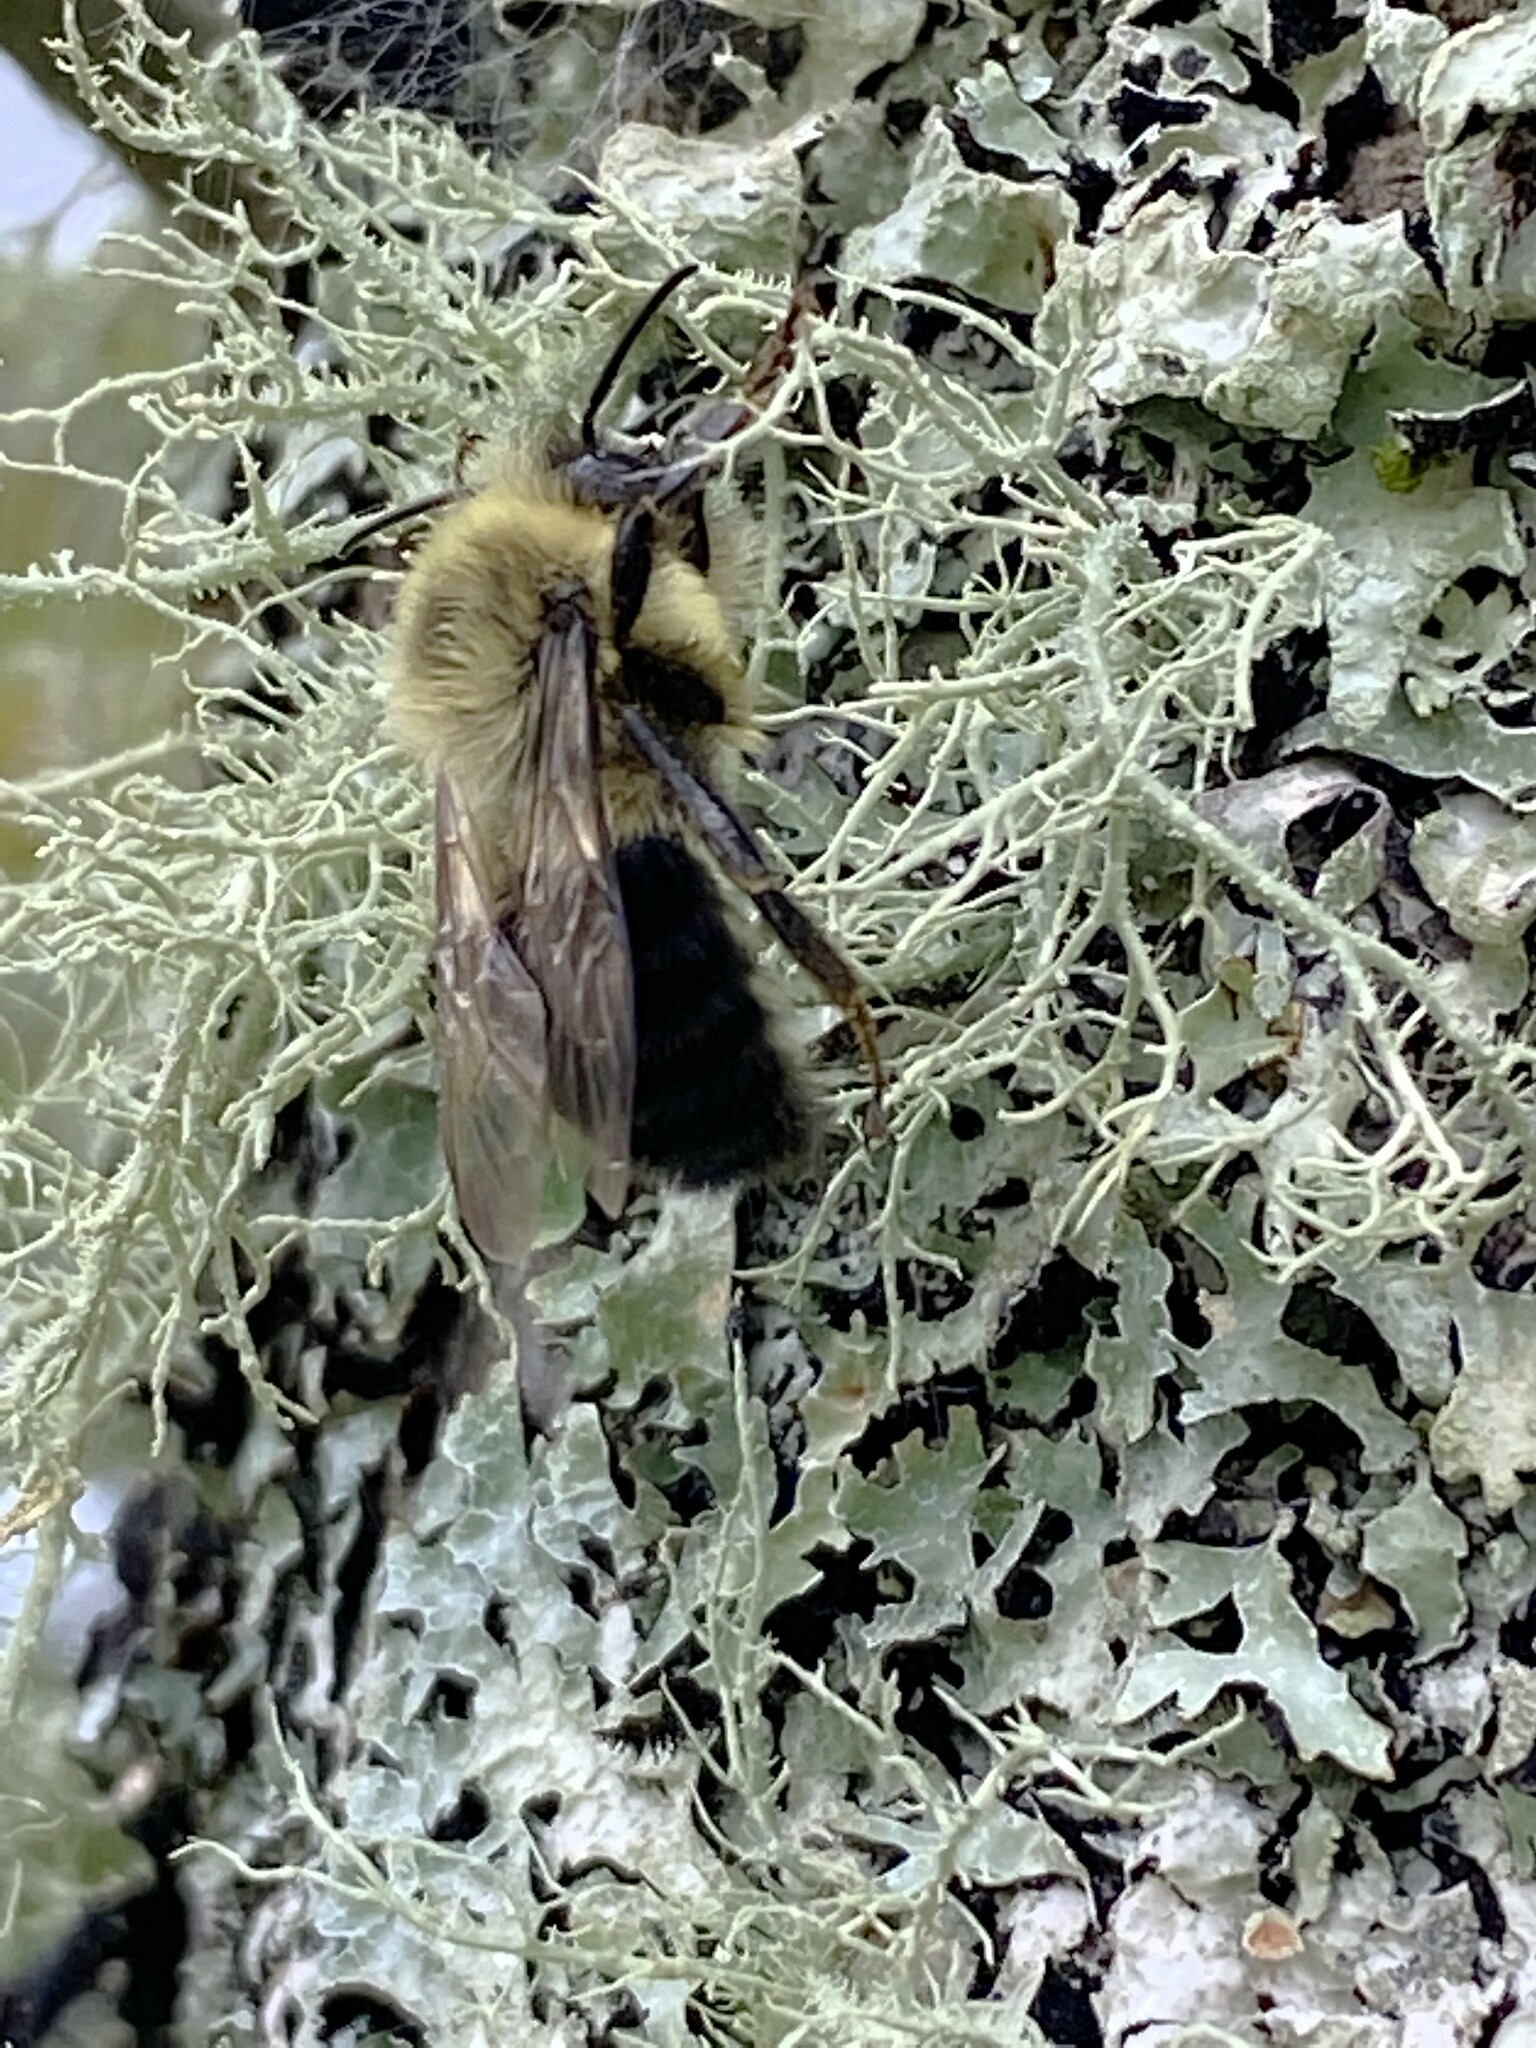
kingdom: Animalia
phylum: Arthropoda
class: Insecta
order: Hymenoptera
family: Apidae
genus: Bombus
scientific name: Bombus impatiens
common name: Common eastern bumble bee
